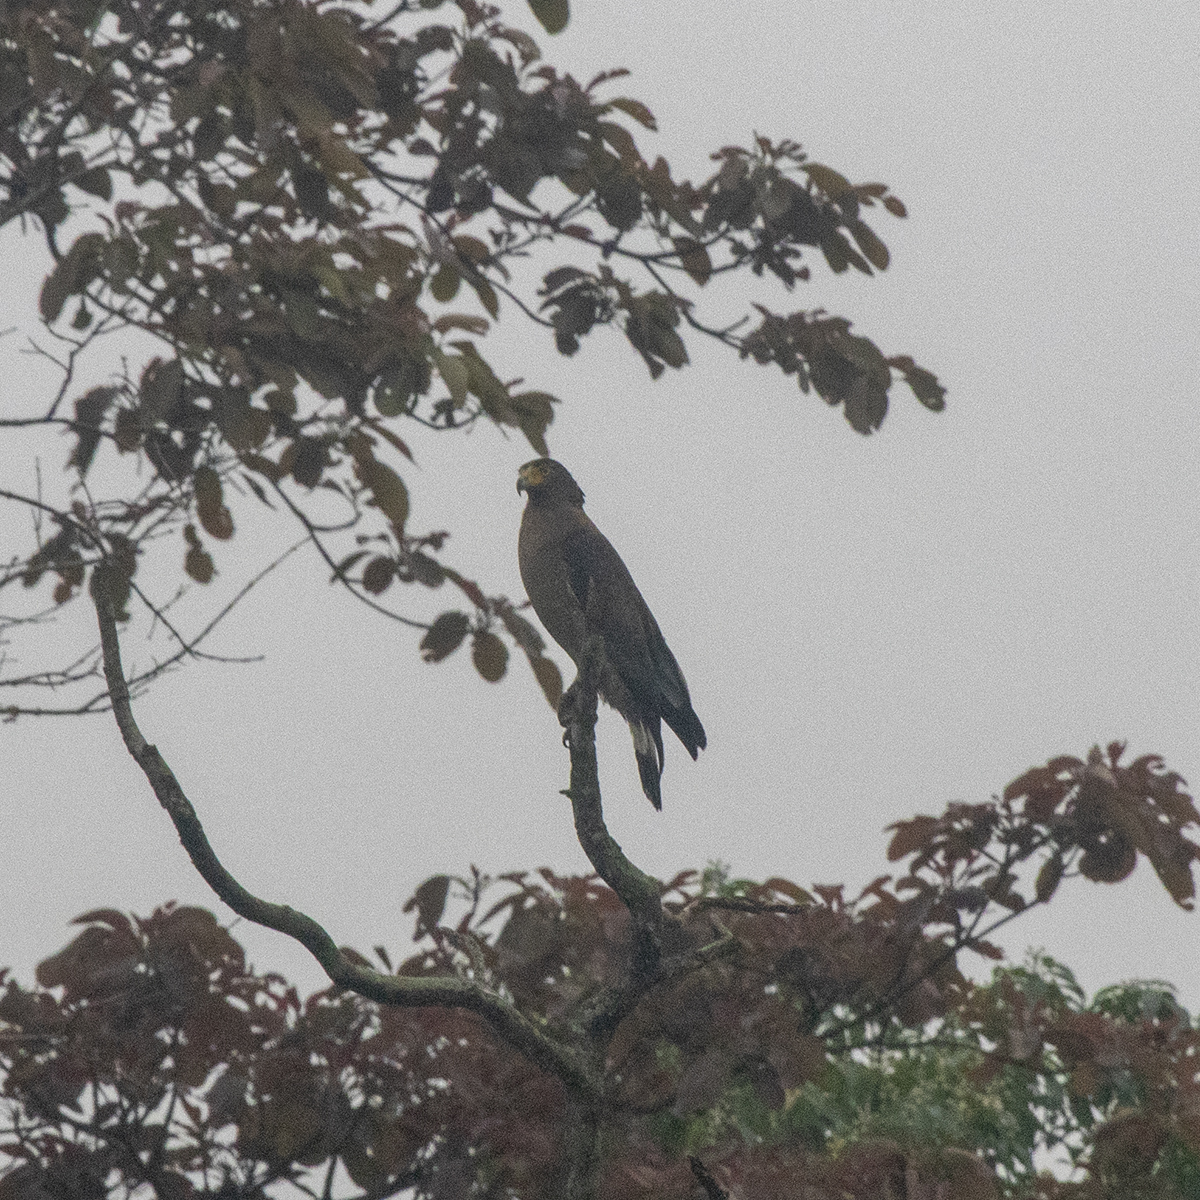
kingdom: Animalia
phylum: Chordata
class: Aves
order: Accipitriformes
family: Accipitridae
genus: Spilornis
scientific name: Spilornis cheela
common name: Crested serpent eagle
